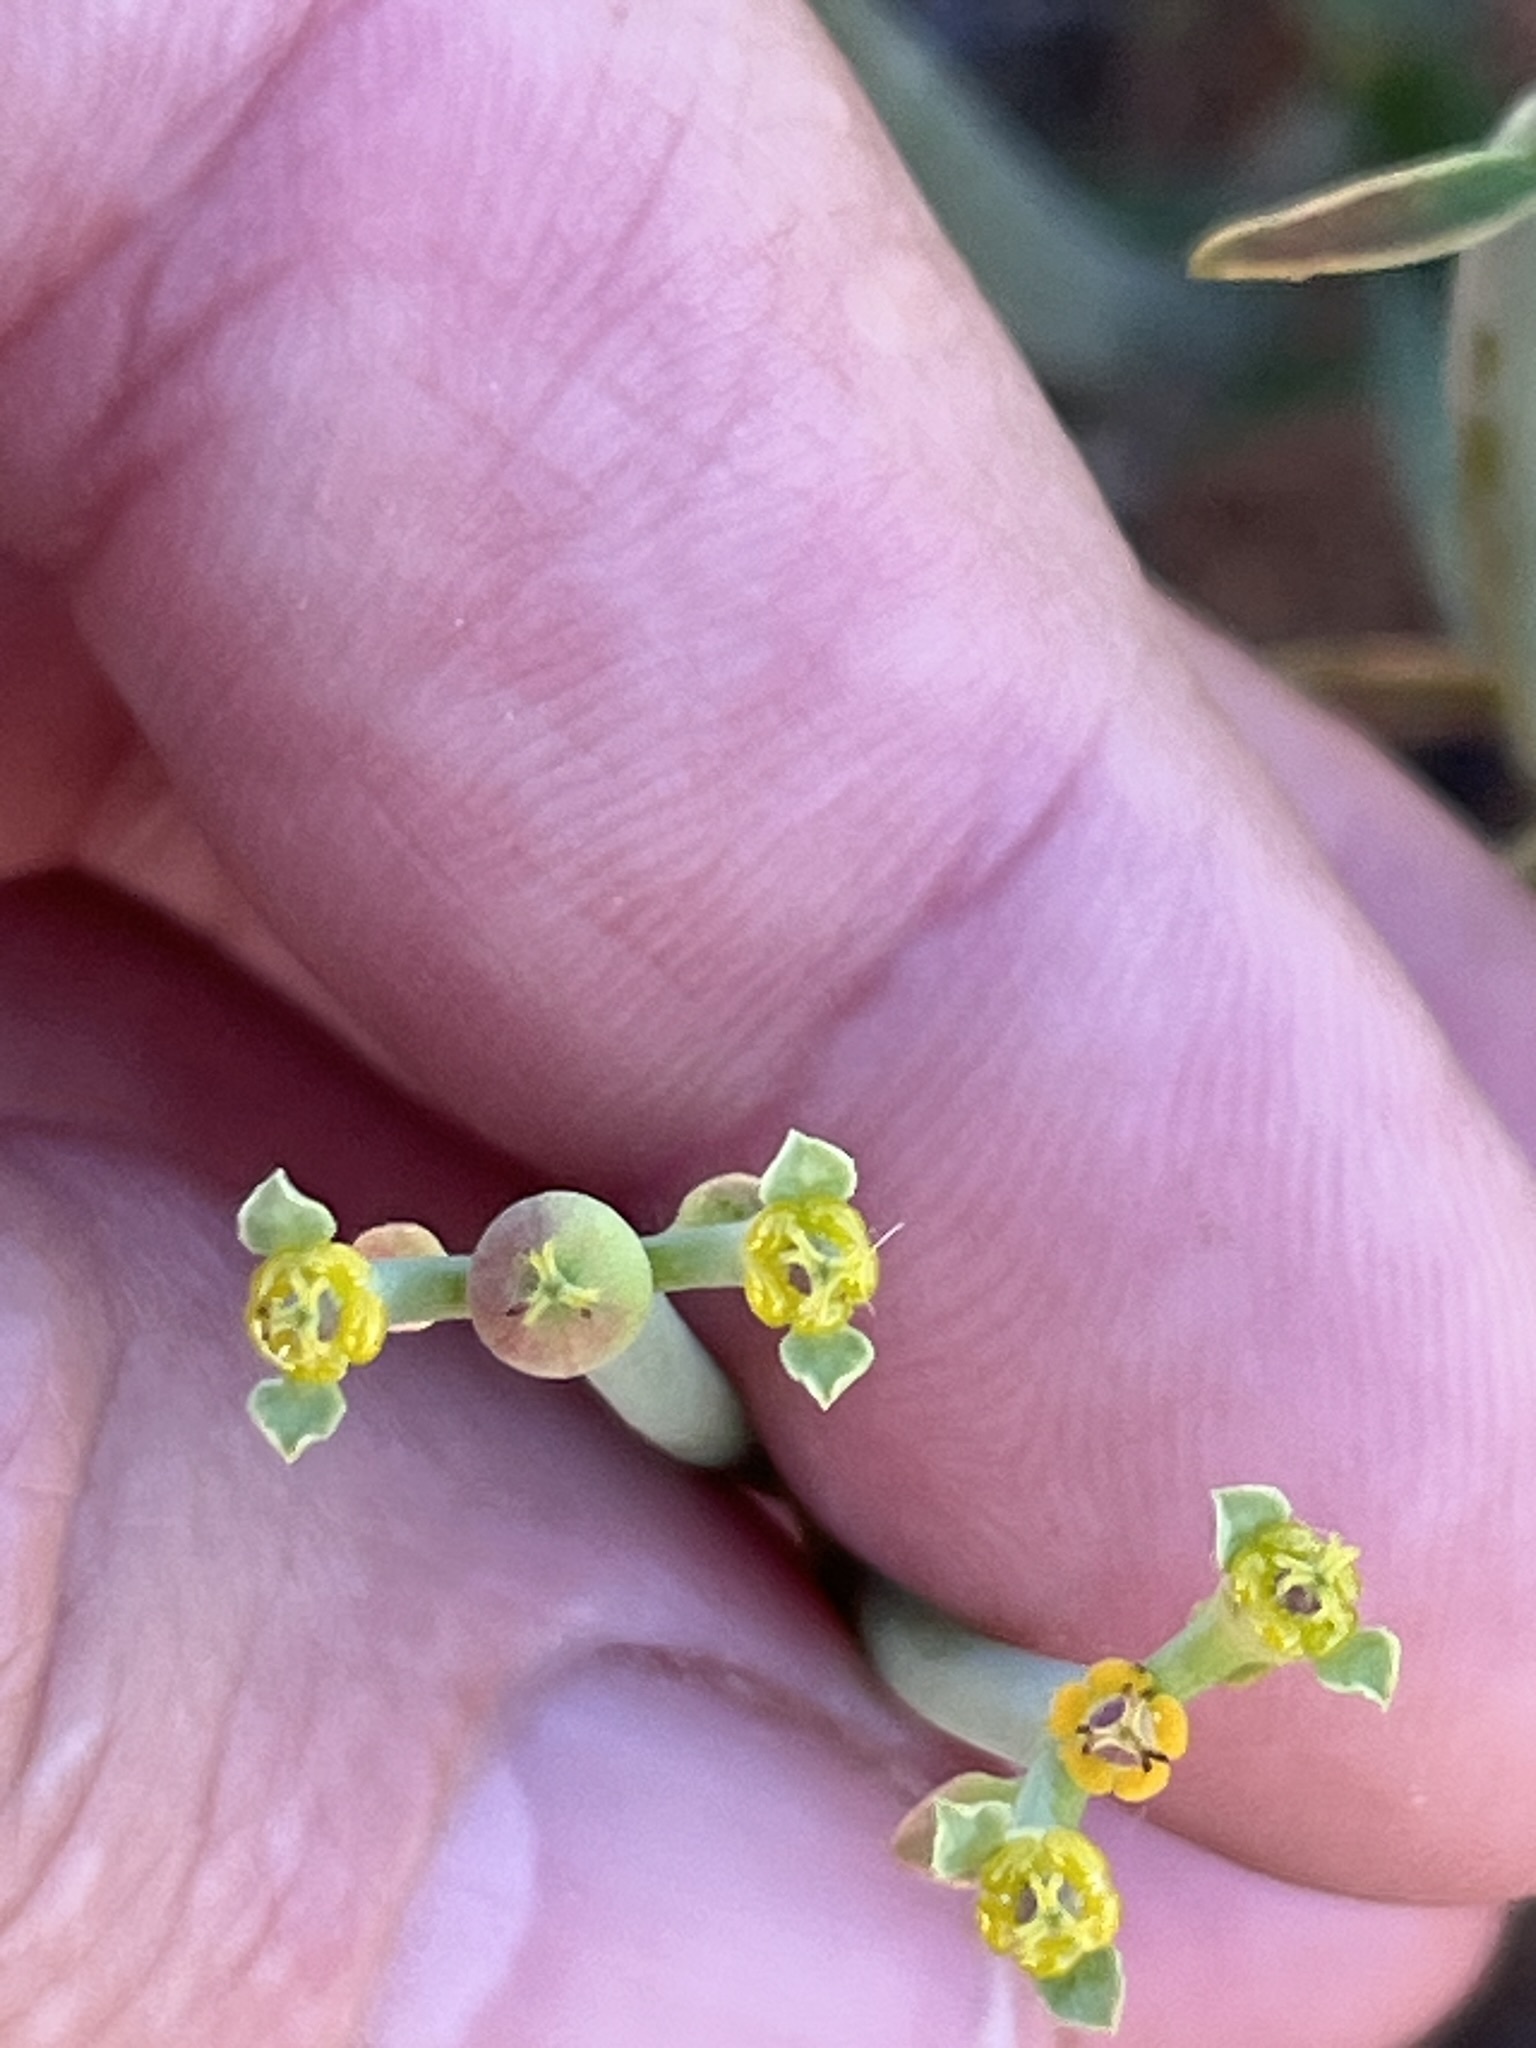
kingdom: Plantae
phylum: Tracheophyta
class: Magnoliopsida
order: Malpighiales
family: Euphorbiaceae
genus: Euphorbia
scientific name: Euphorbia ephedroides
